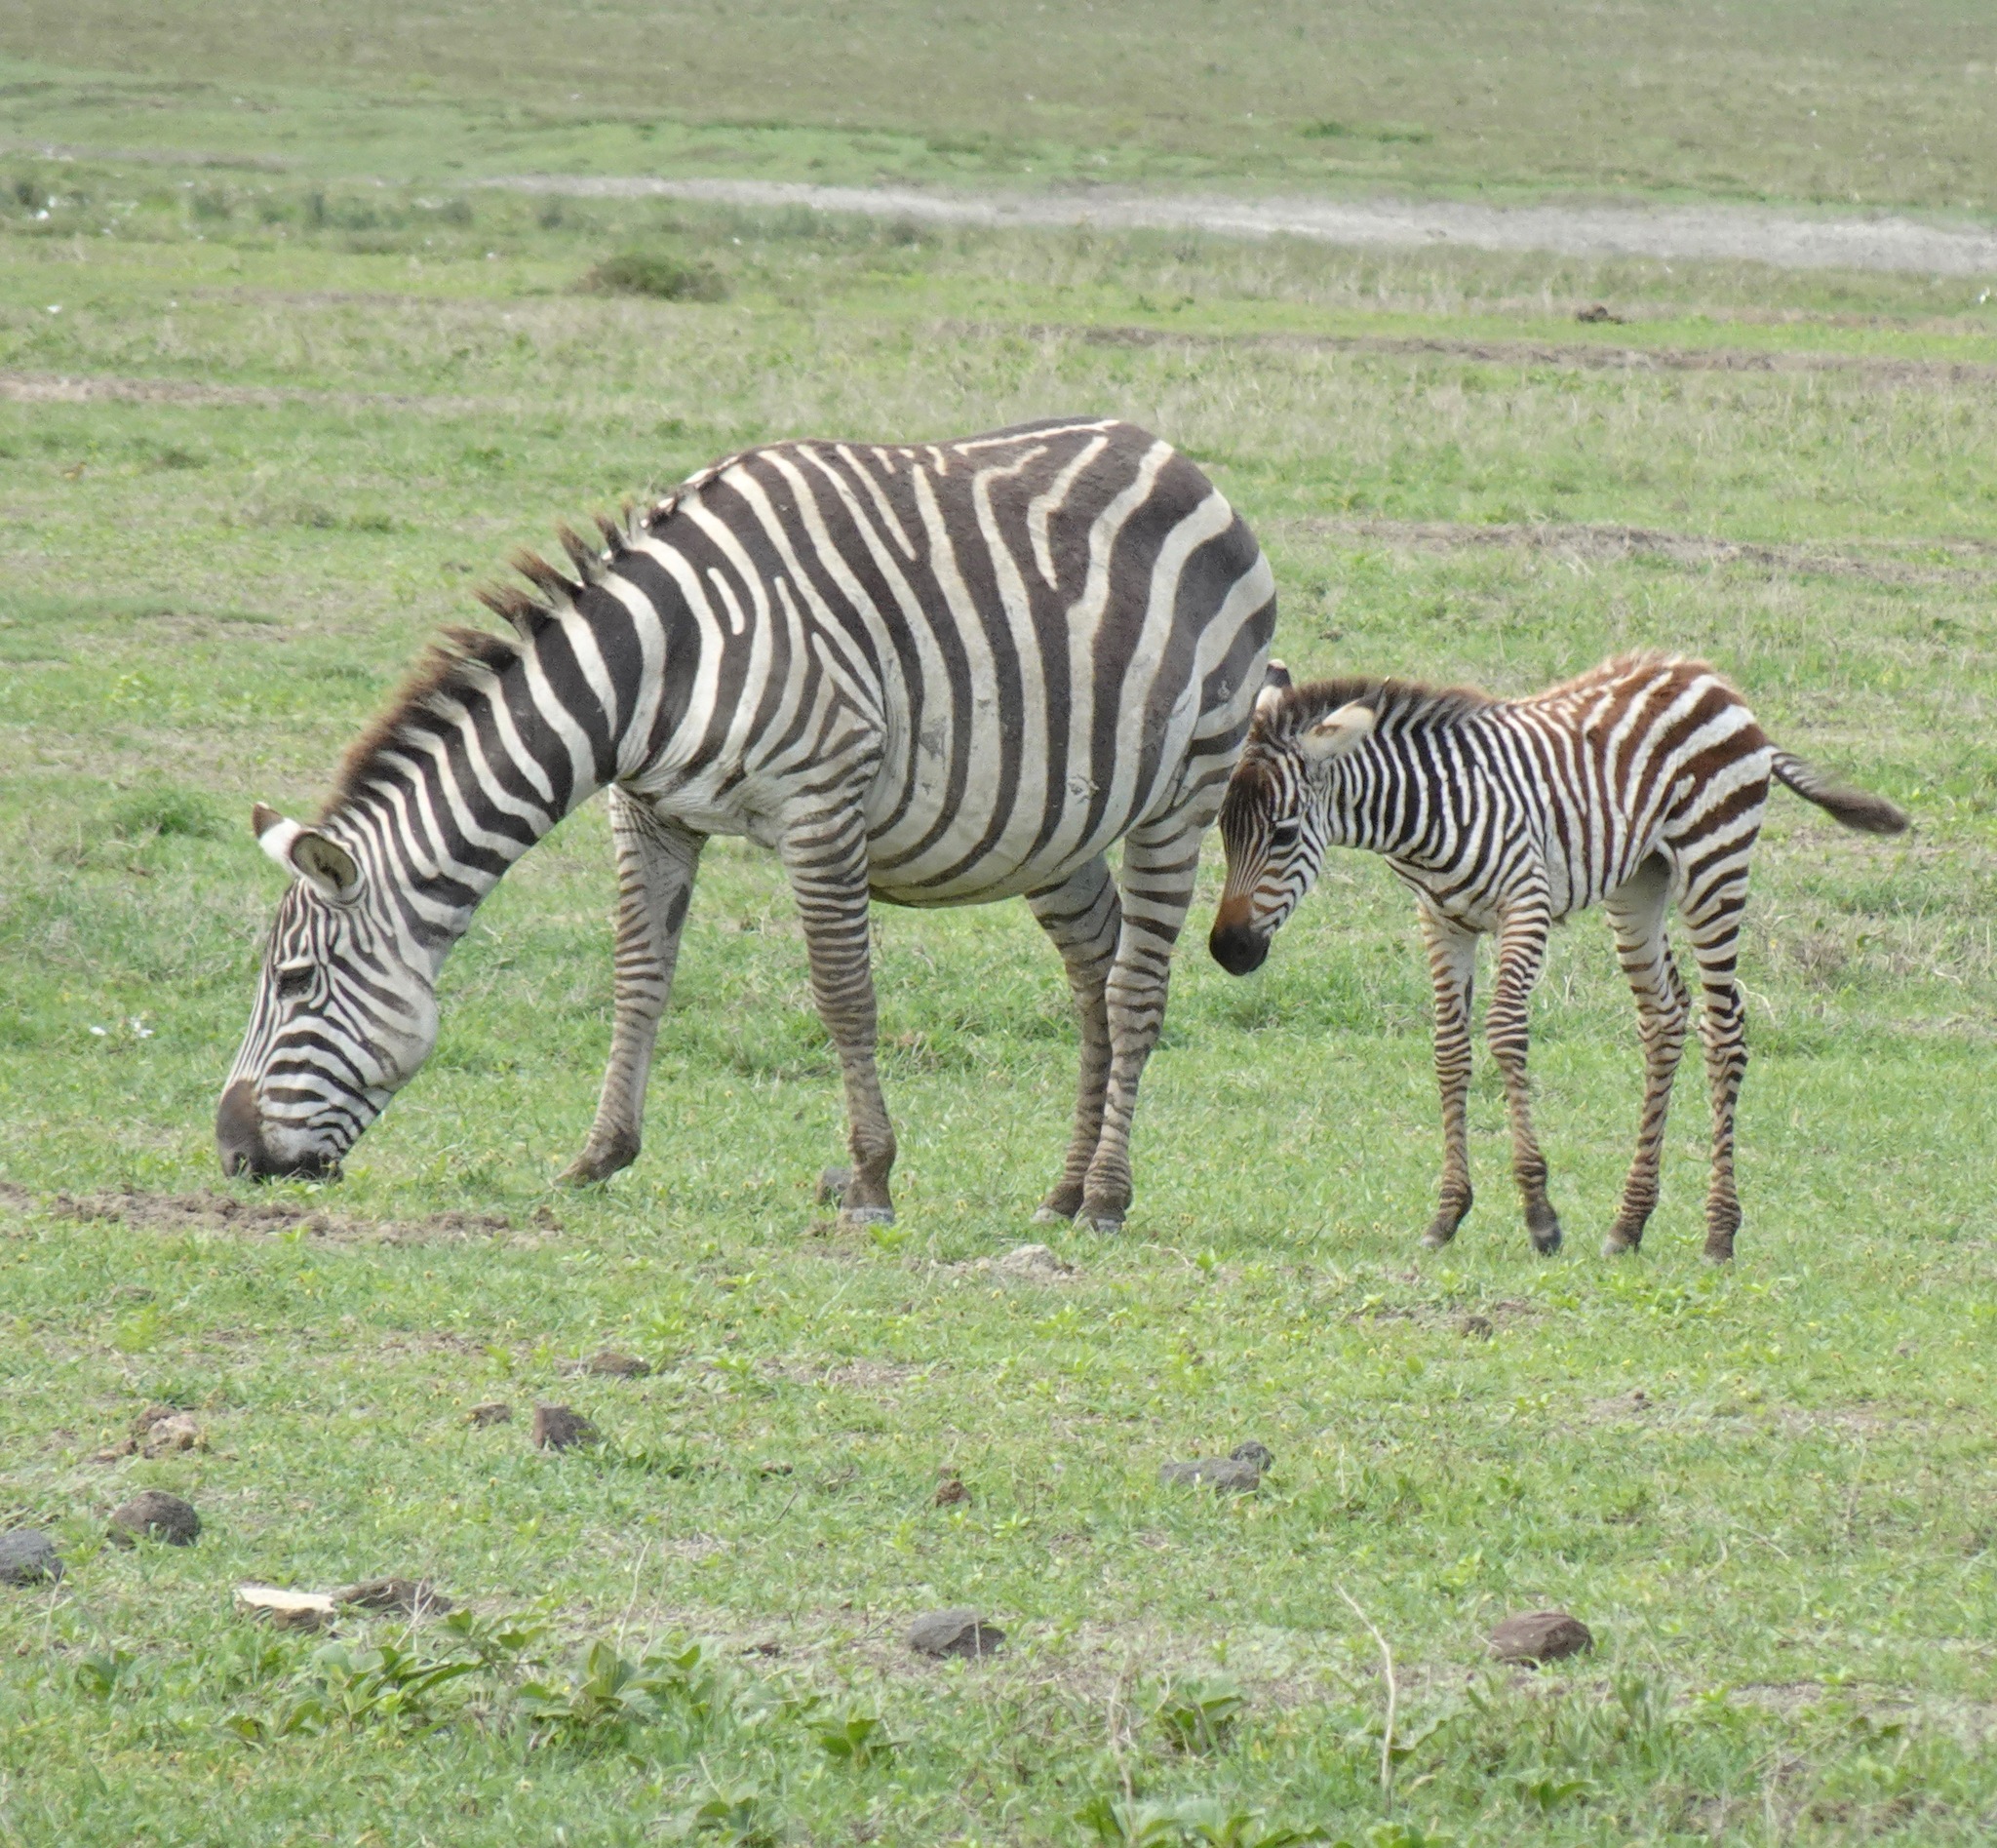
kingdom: Animalia
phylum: Chordata
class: Mammalia
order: Perissodactyla
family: Equidae
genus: Equus
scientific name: Equus quagga
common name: Plains zebra
